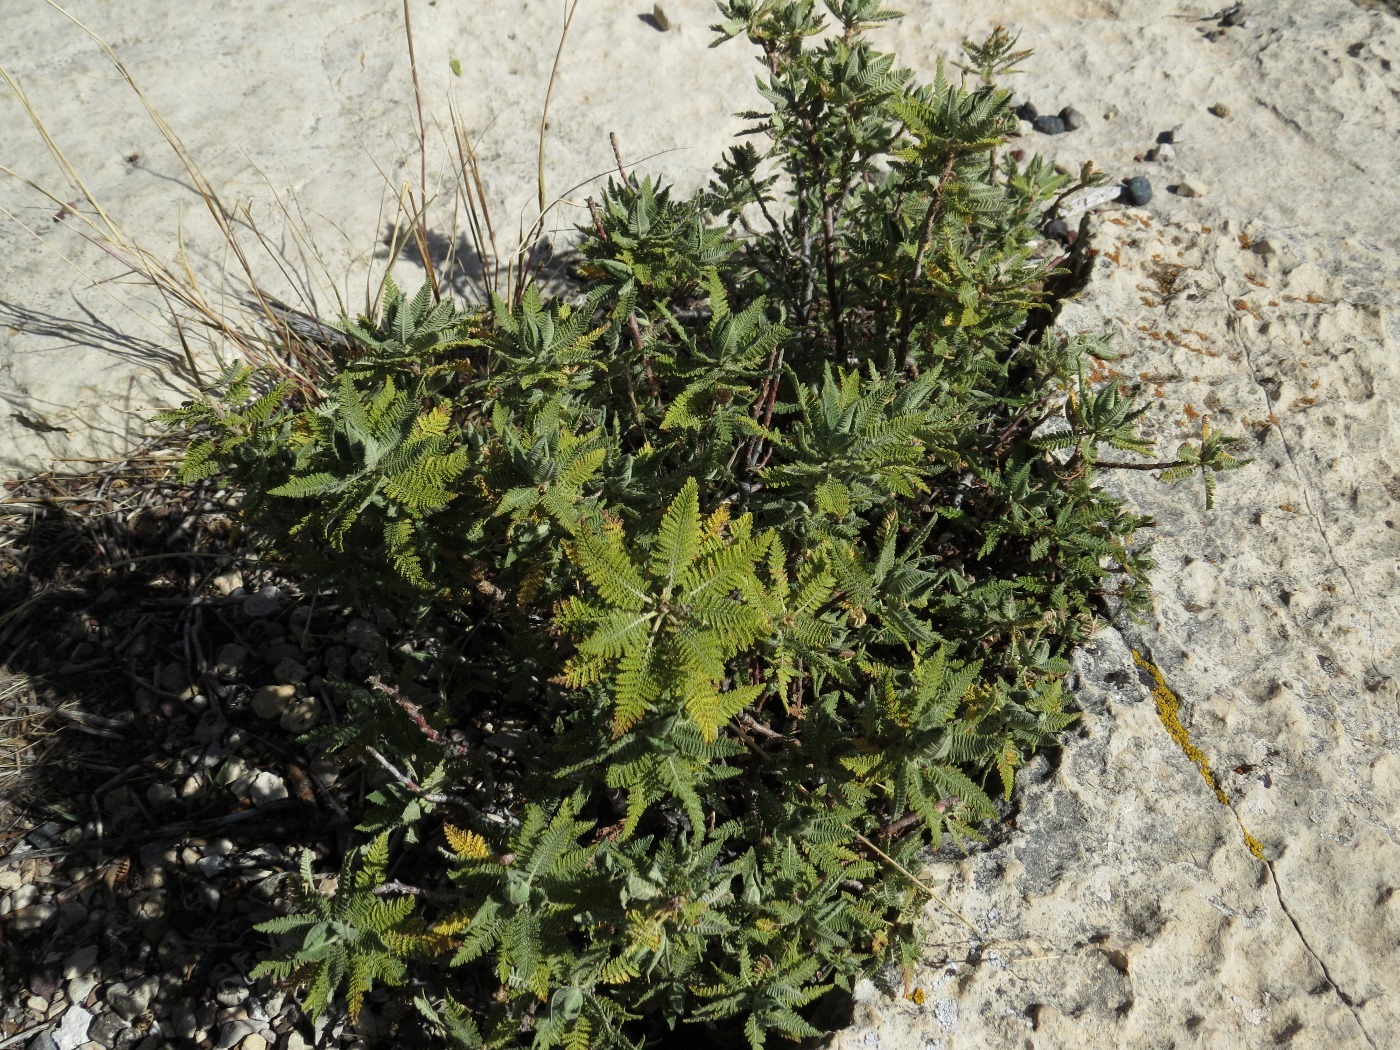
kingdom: Plantae
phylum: Tracheophyta
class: Magnoliopsida
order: Rosales
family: Rosaceae
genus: Chamaebatiaria
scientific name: Chamaebatiaria millefolium
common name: Fernbush
